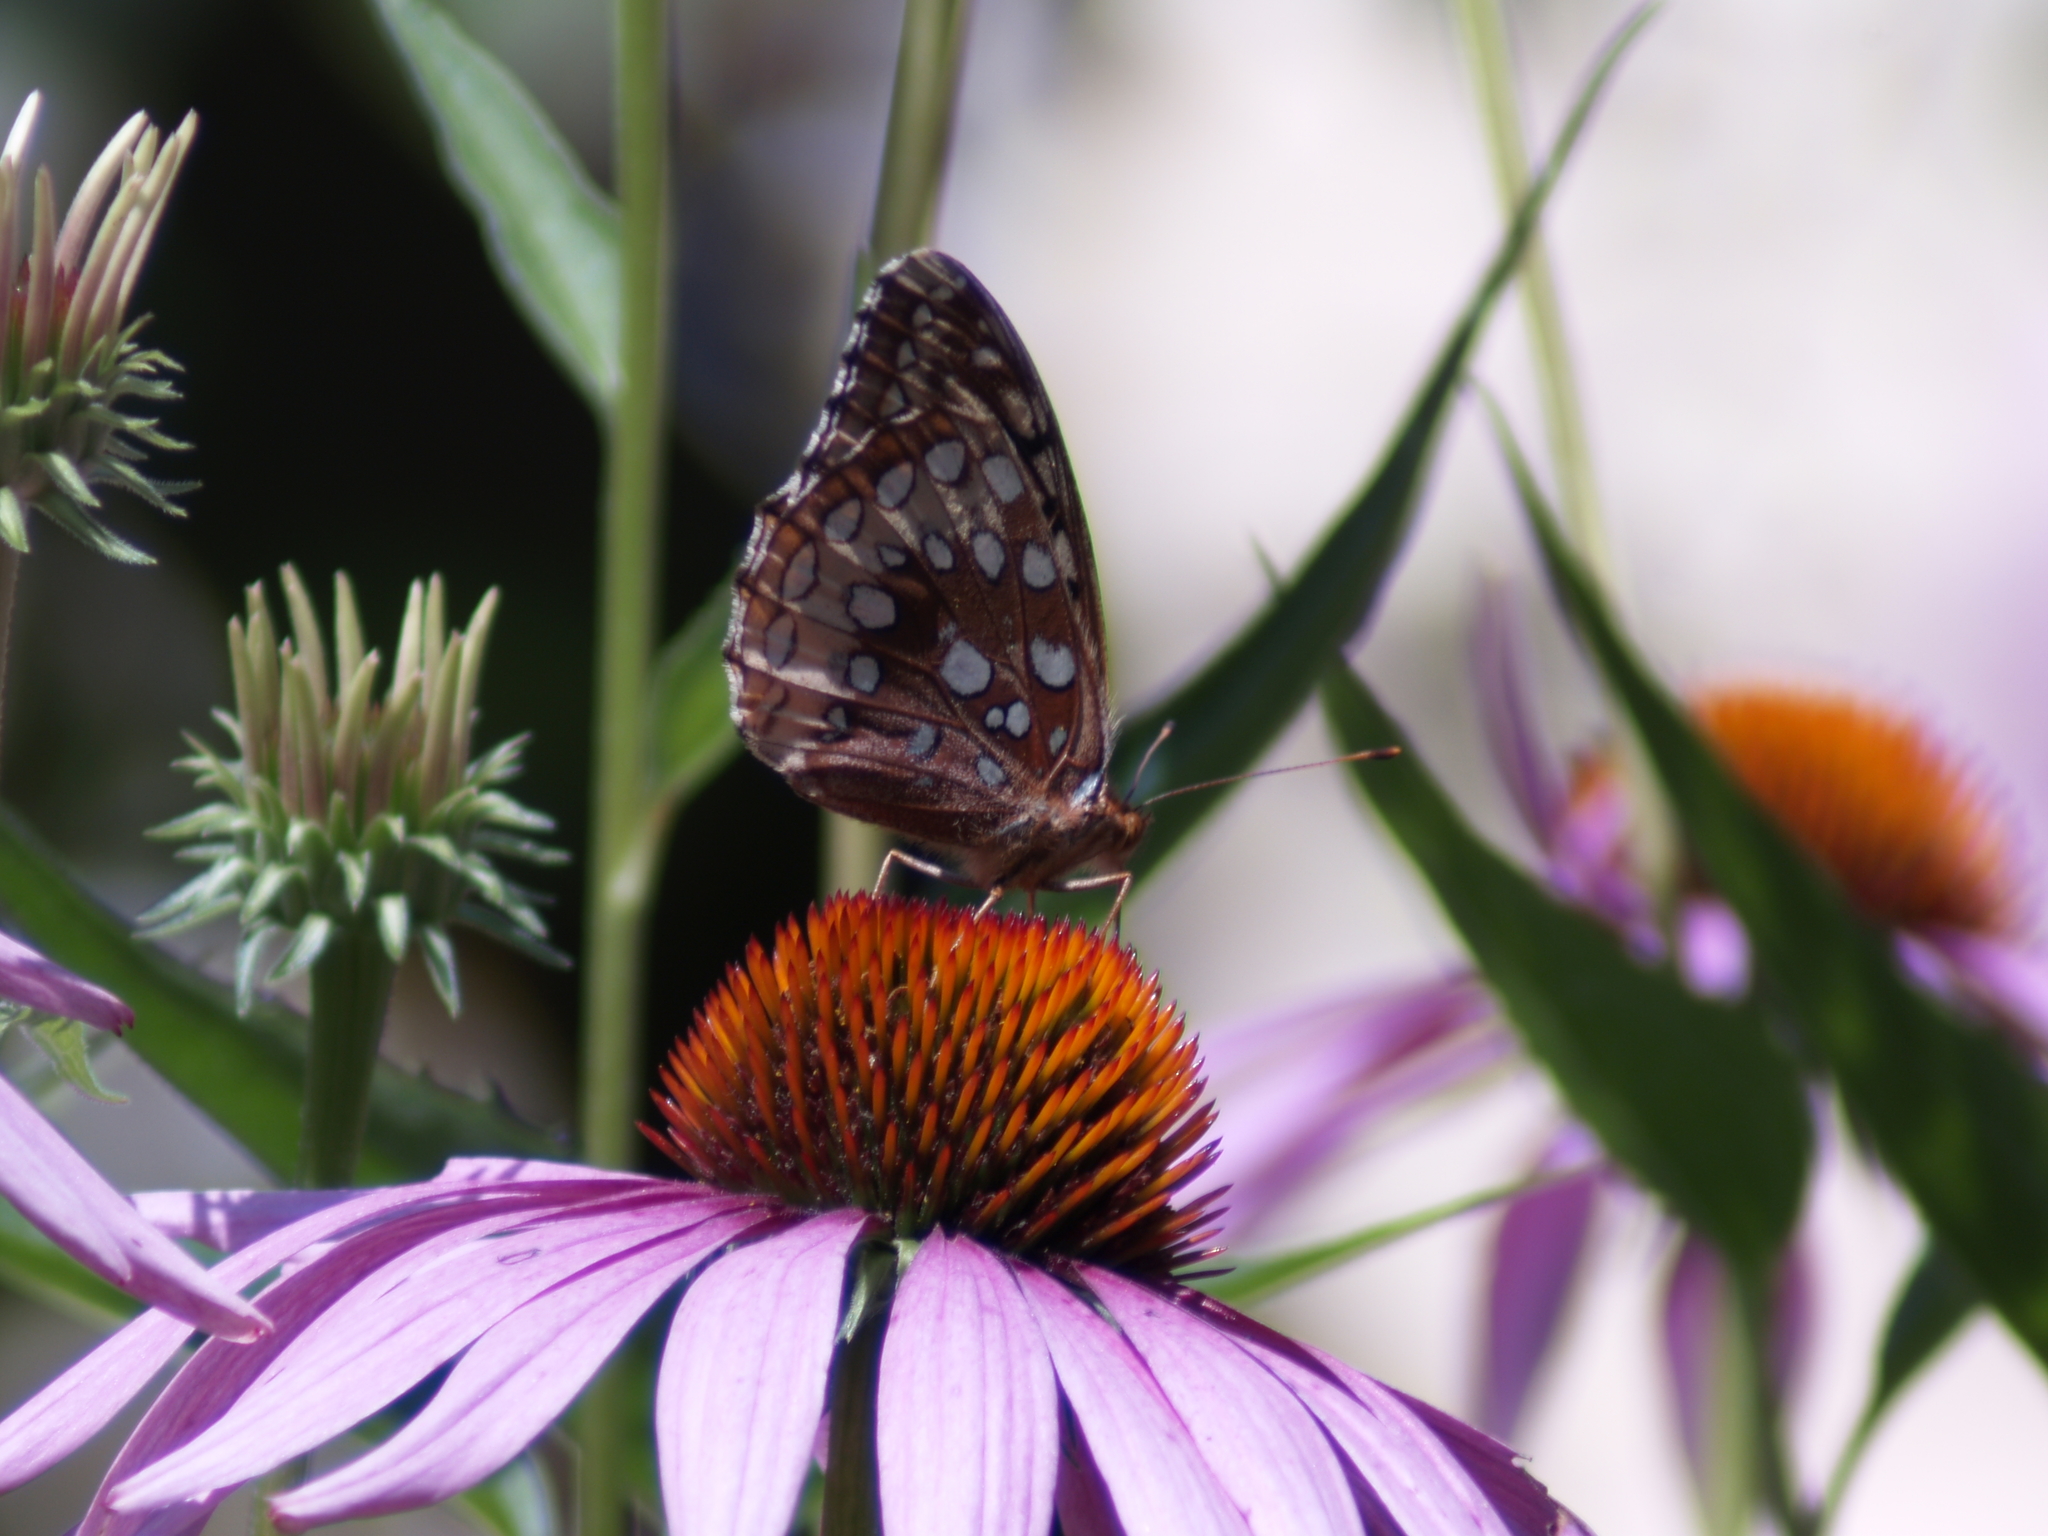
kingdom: Animalia
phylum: Arthropoda
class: Insecta
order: Lepidoptera
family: Nymphalidae
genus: Speyeria
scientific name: Speyeria cybele
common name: Great spangled fritillary
